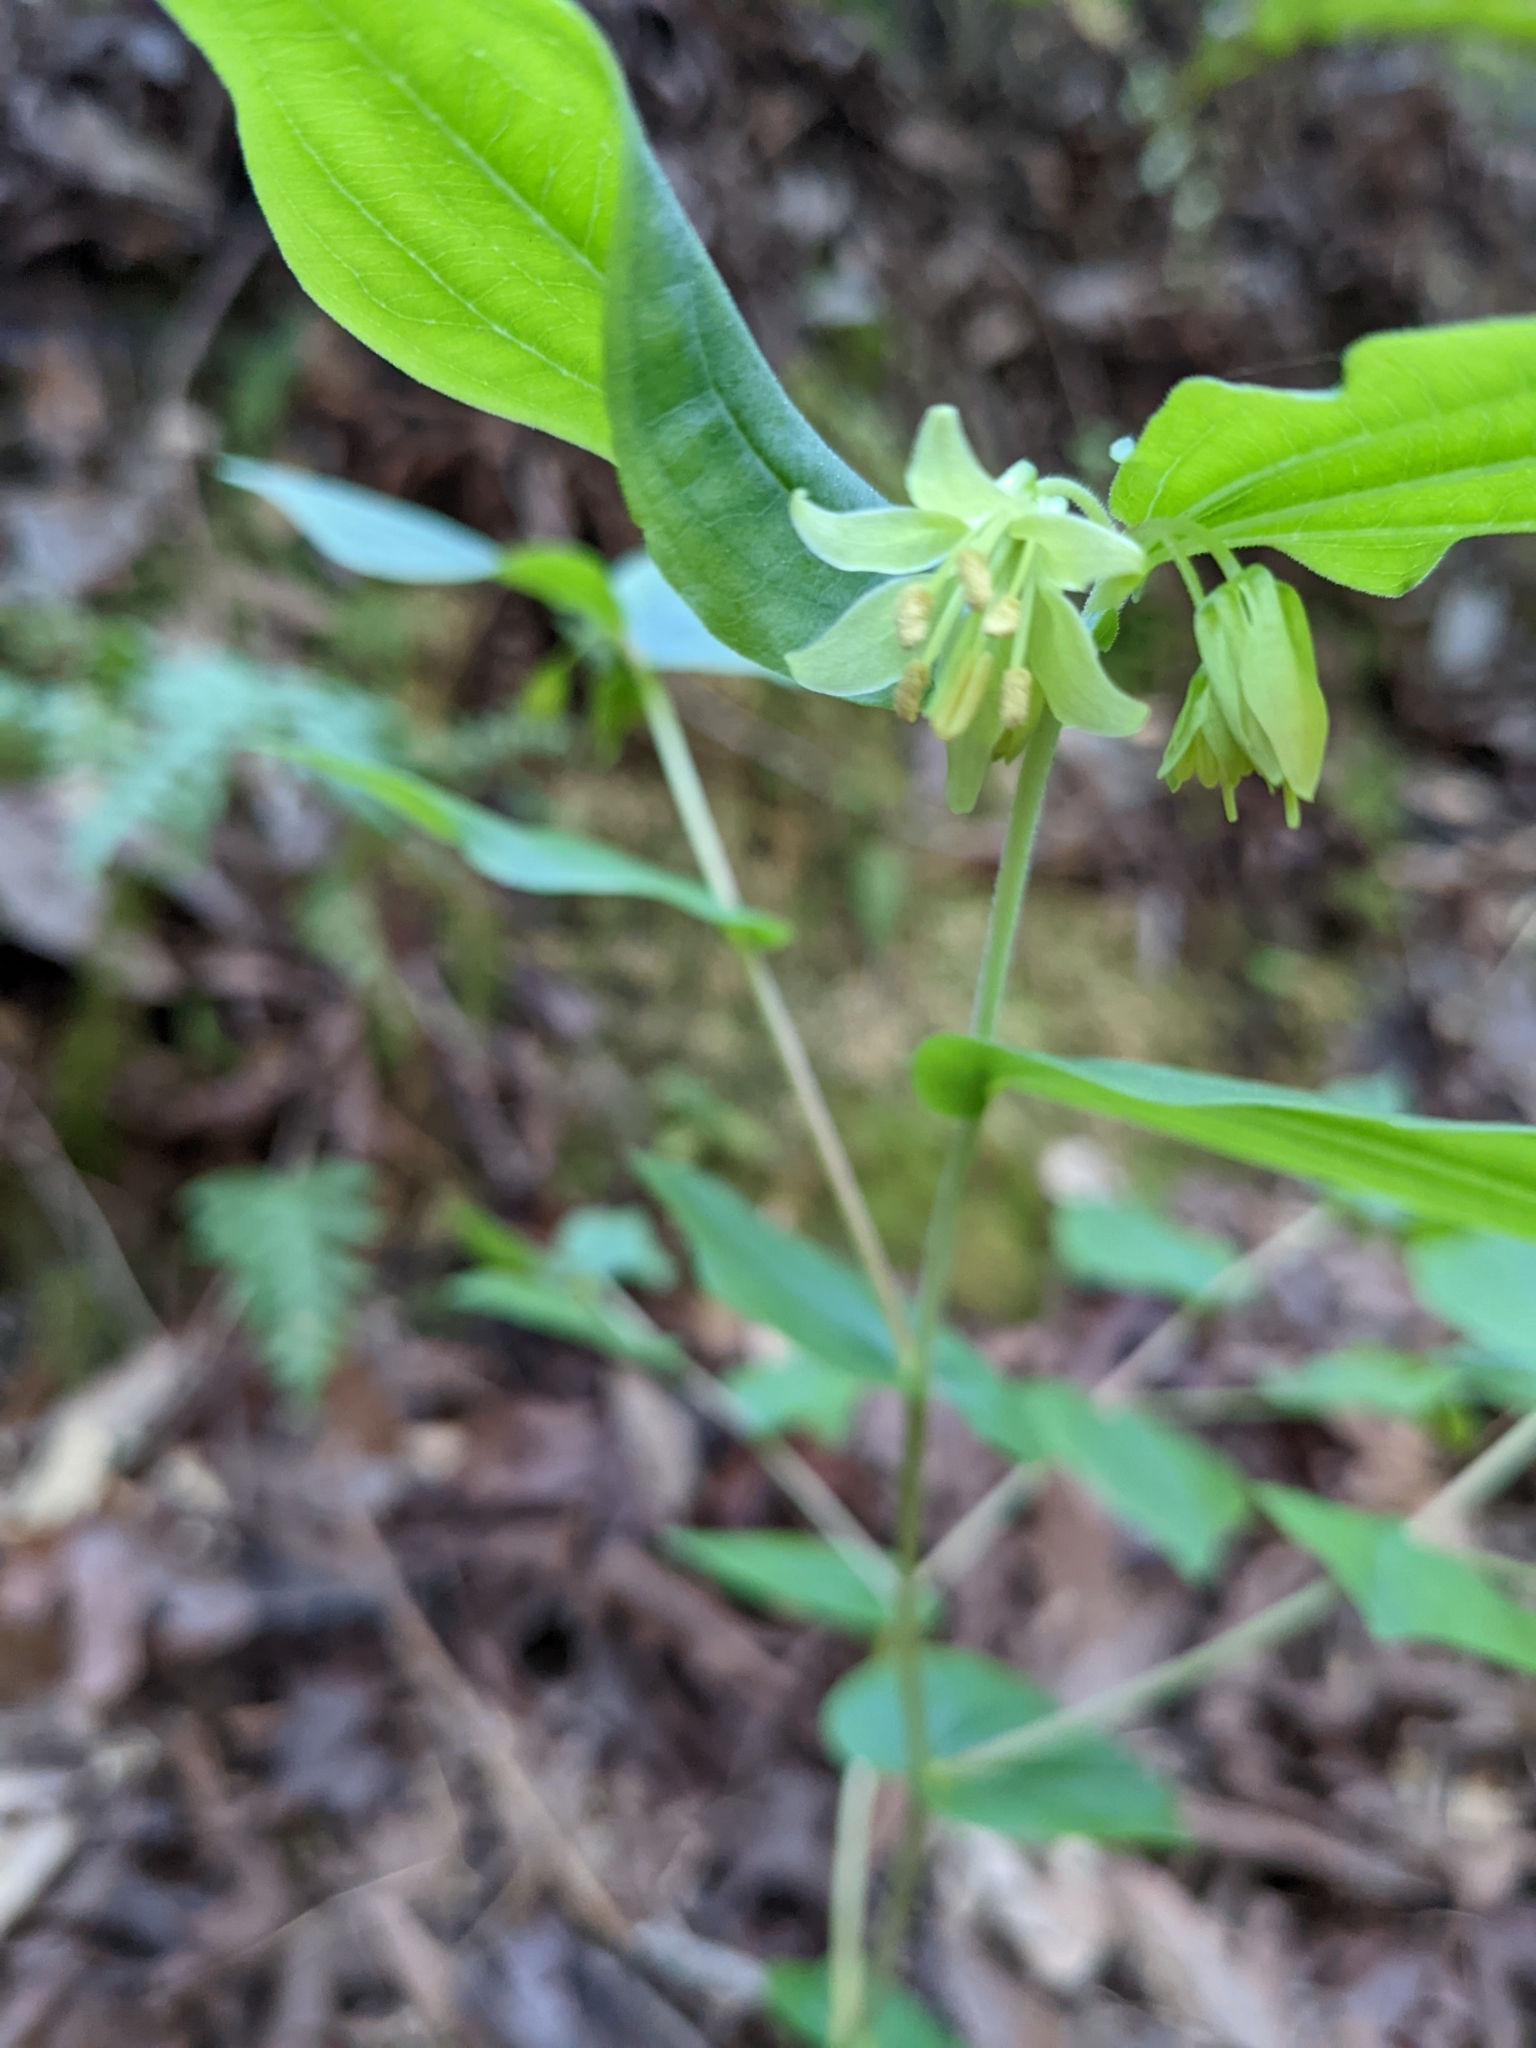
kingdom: Plantae
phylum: Tracheophyta
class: Liliopsida
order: Liliales
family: Liliaceae
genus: Prosartes
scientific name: Prosartes hookeri
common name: Fairy-bells
